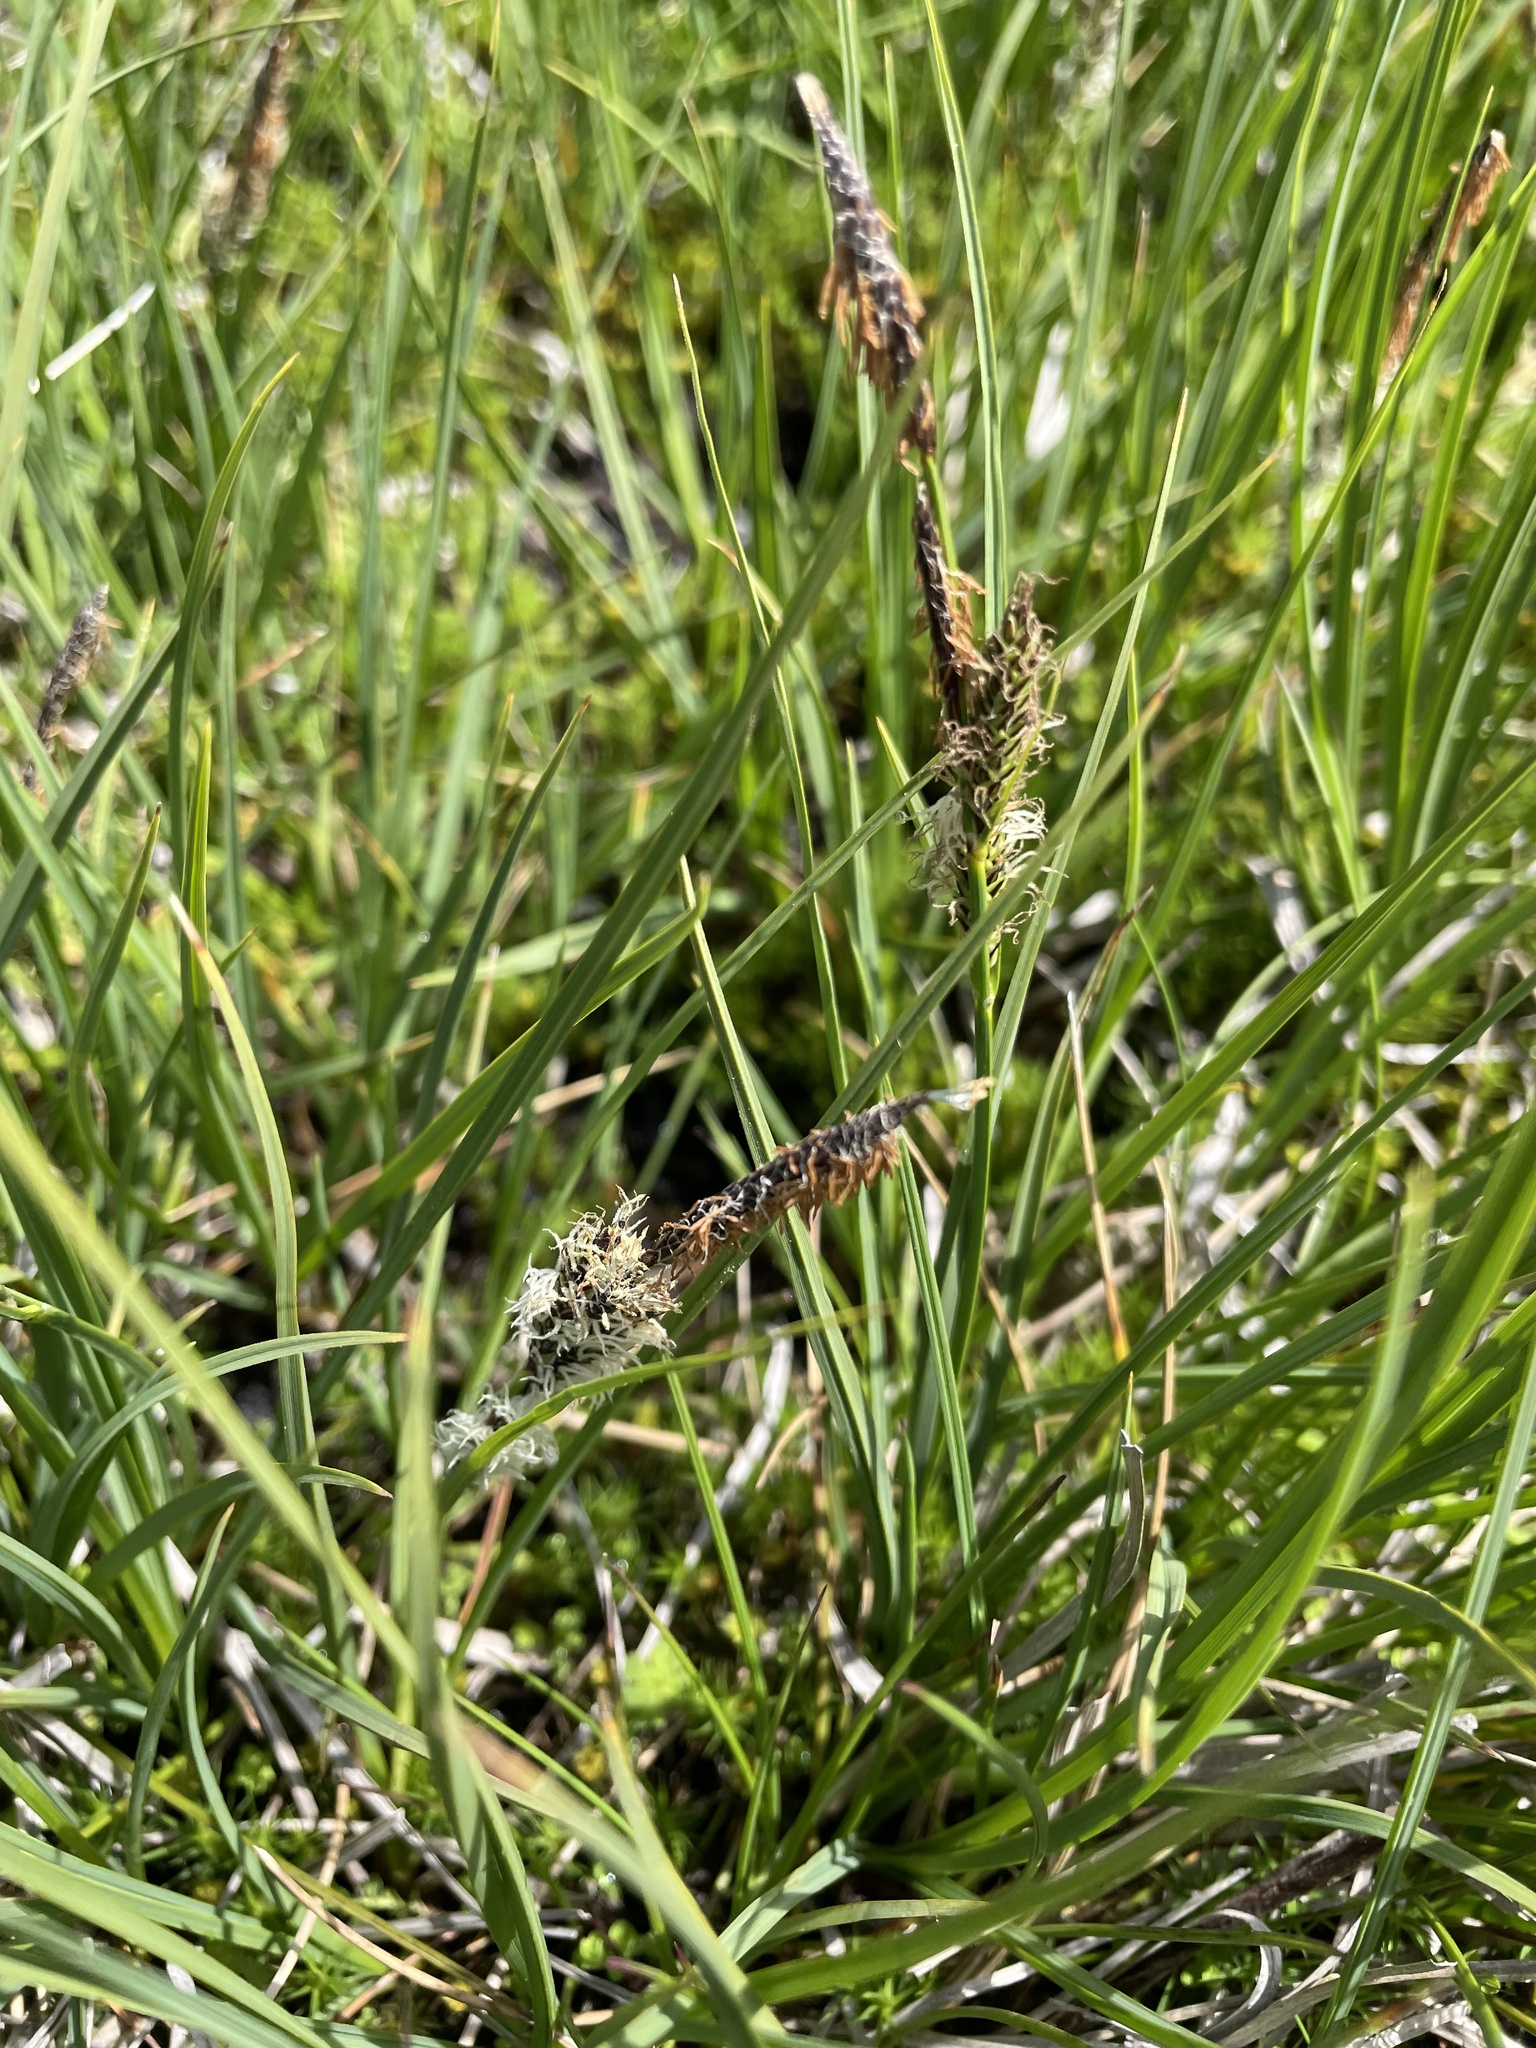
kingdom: Plantae
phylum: Tracheophyta
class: Liliopsida
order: Poales
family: Cyperaceae
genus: Carex
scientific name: Carex gaudichaudiana
